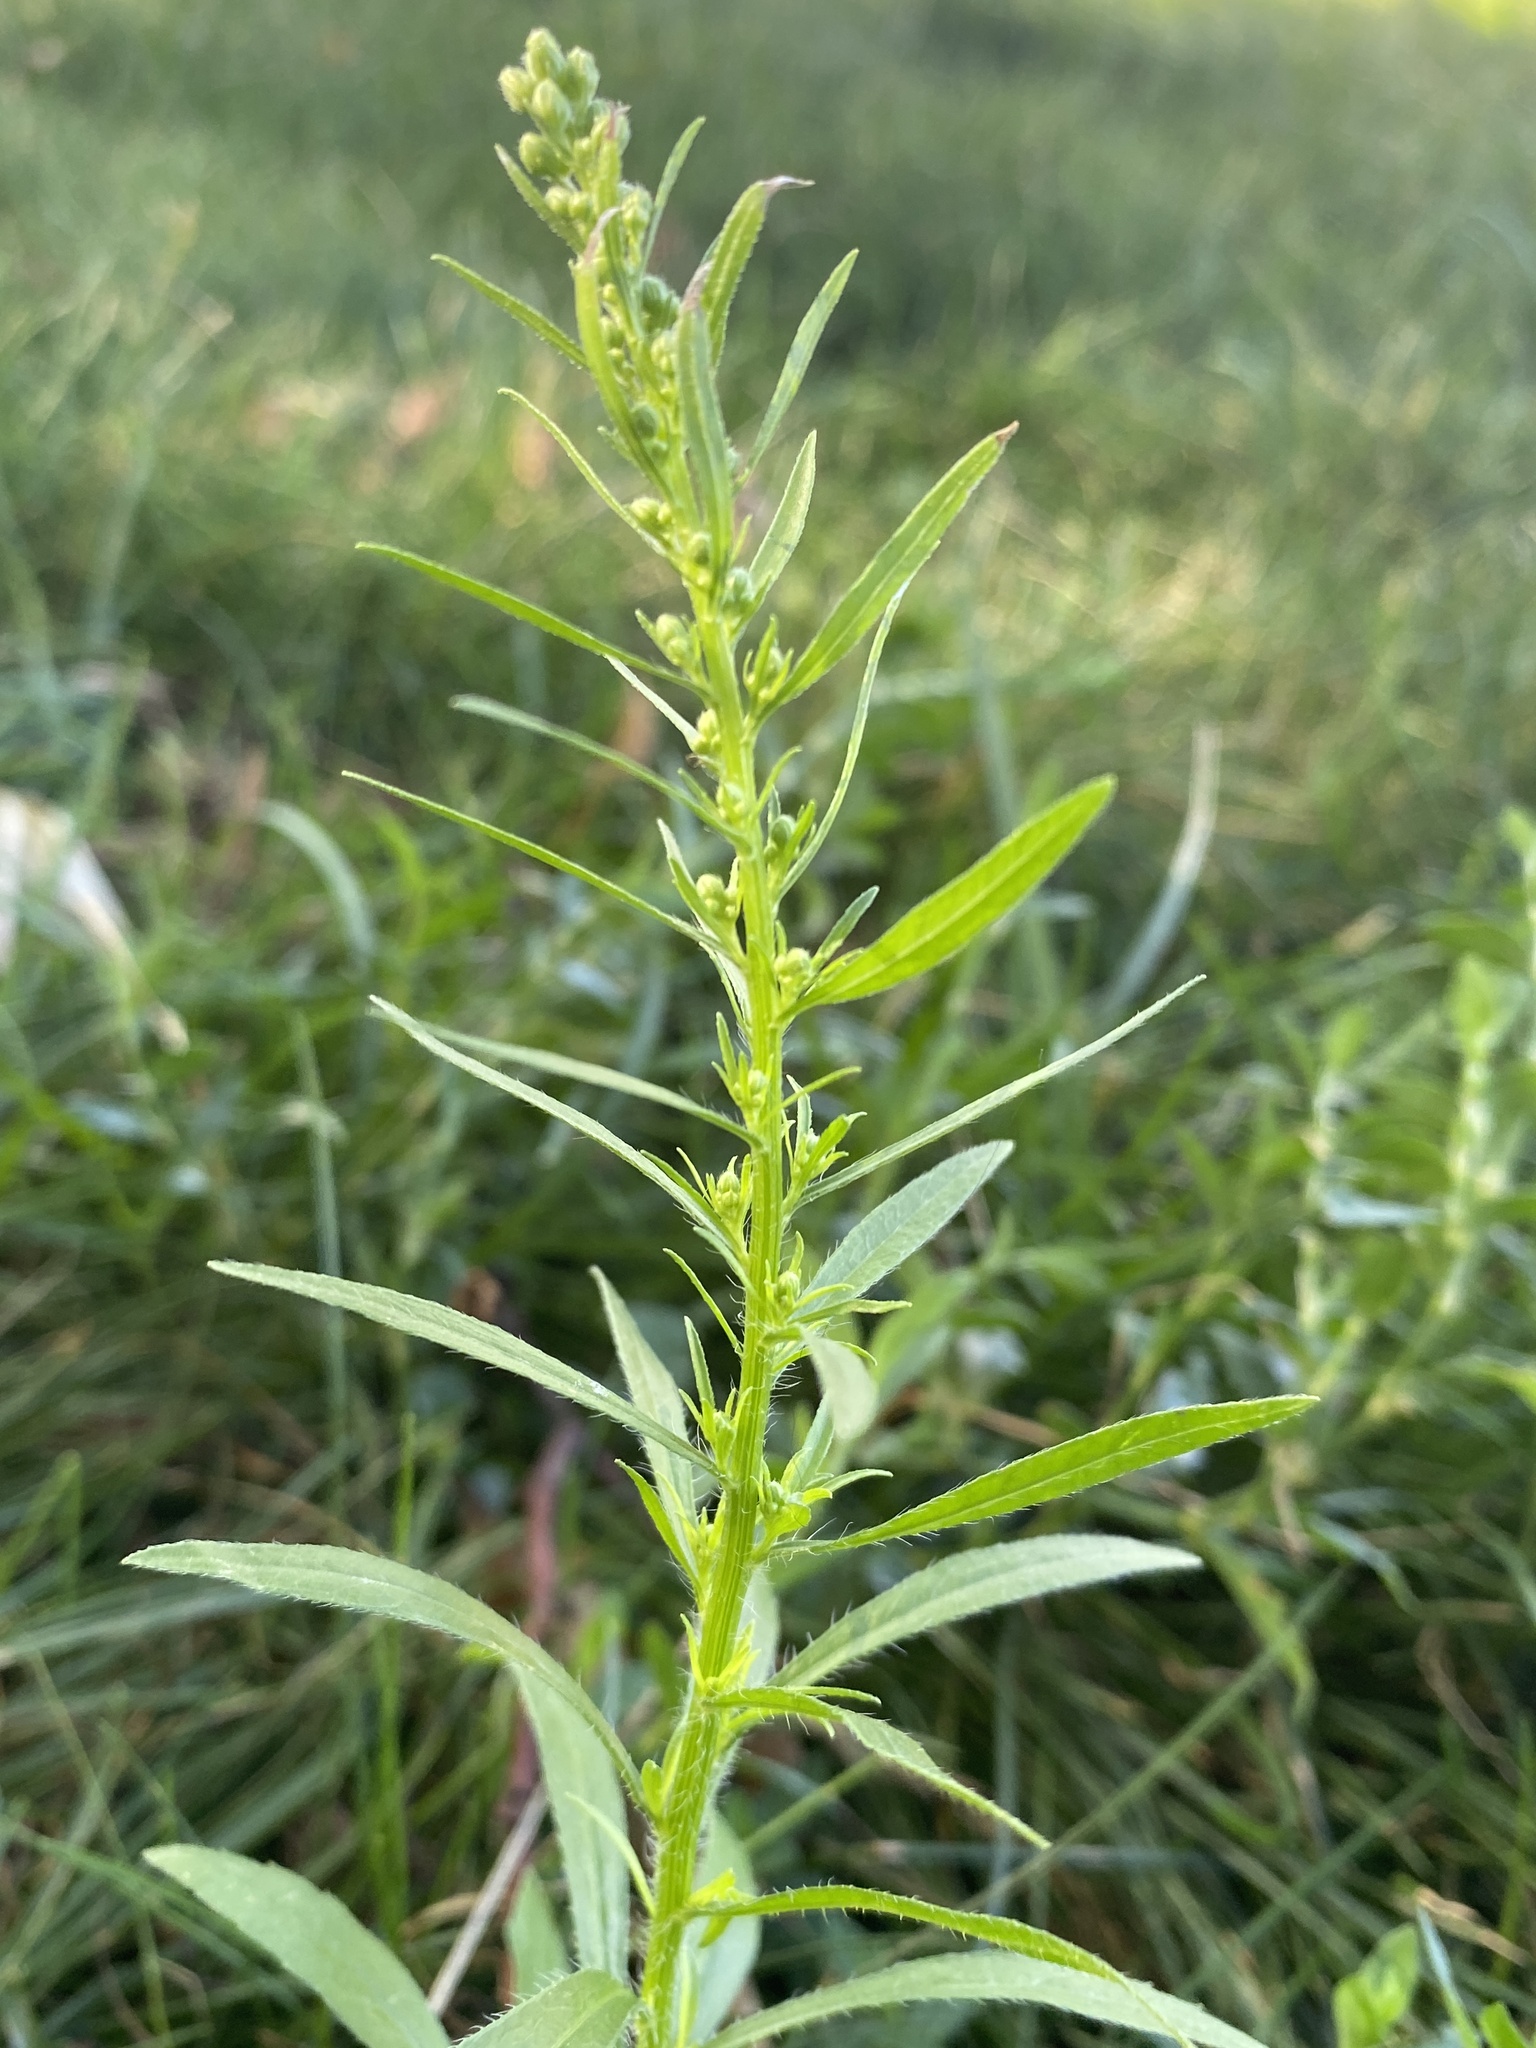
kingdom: Plantae
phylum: Tracheophyta
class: Magnoliopsida
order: Asterales
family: Asteraceae
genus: Erigeron
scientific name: Erigeron canadensis
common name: Canadian fleabane
